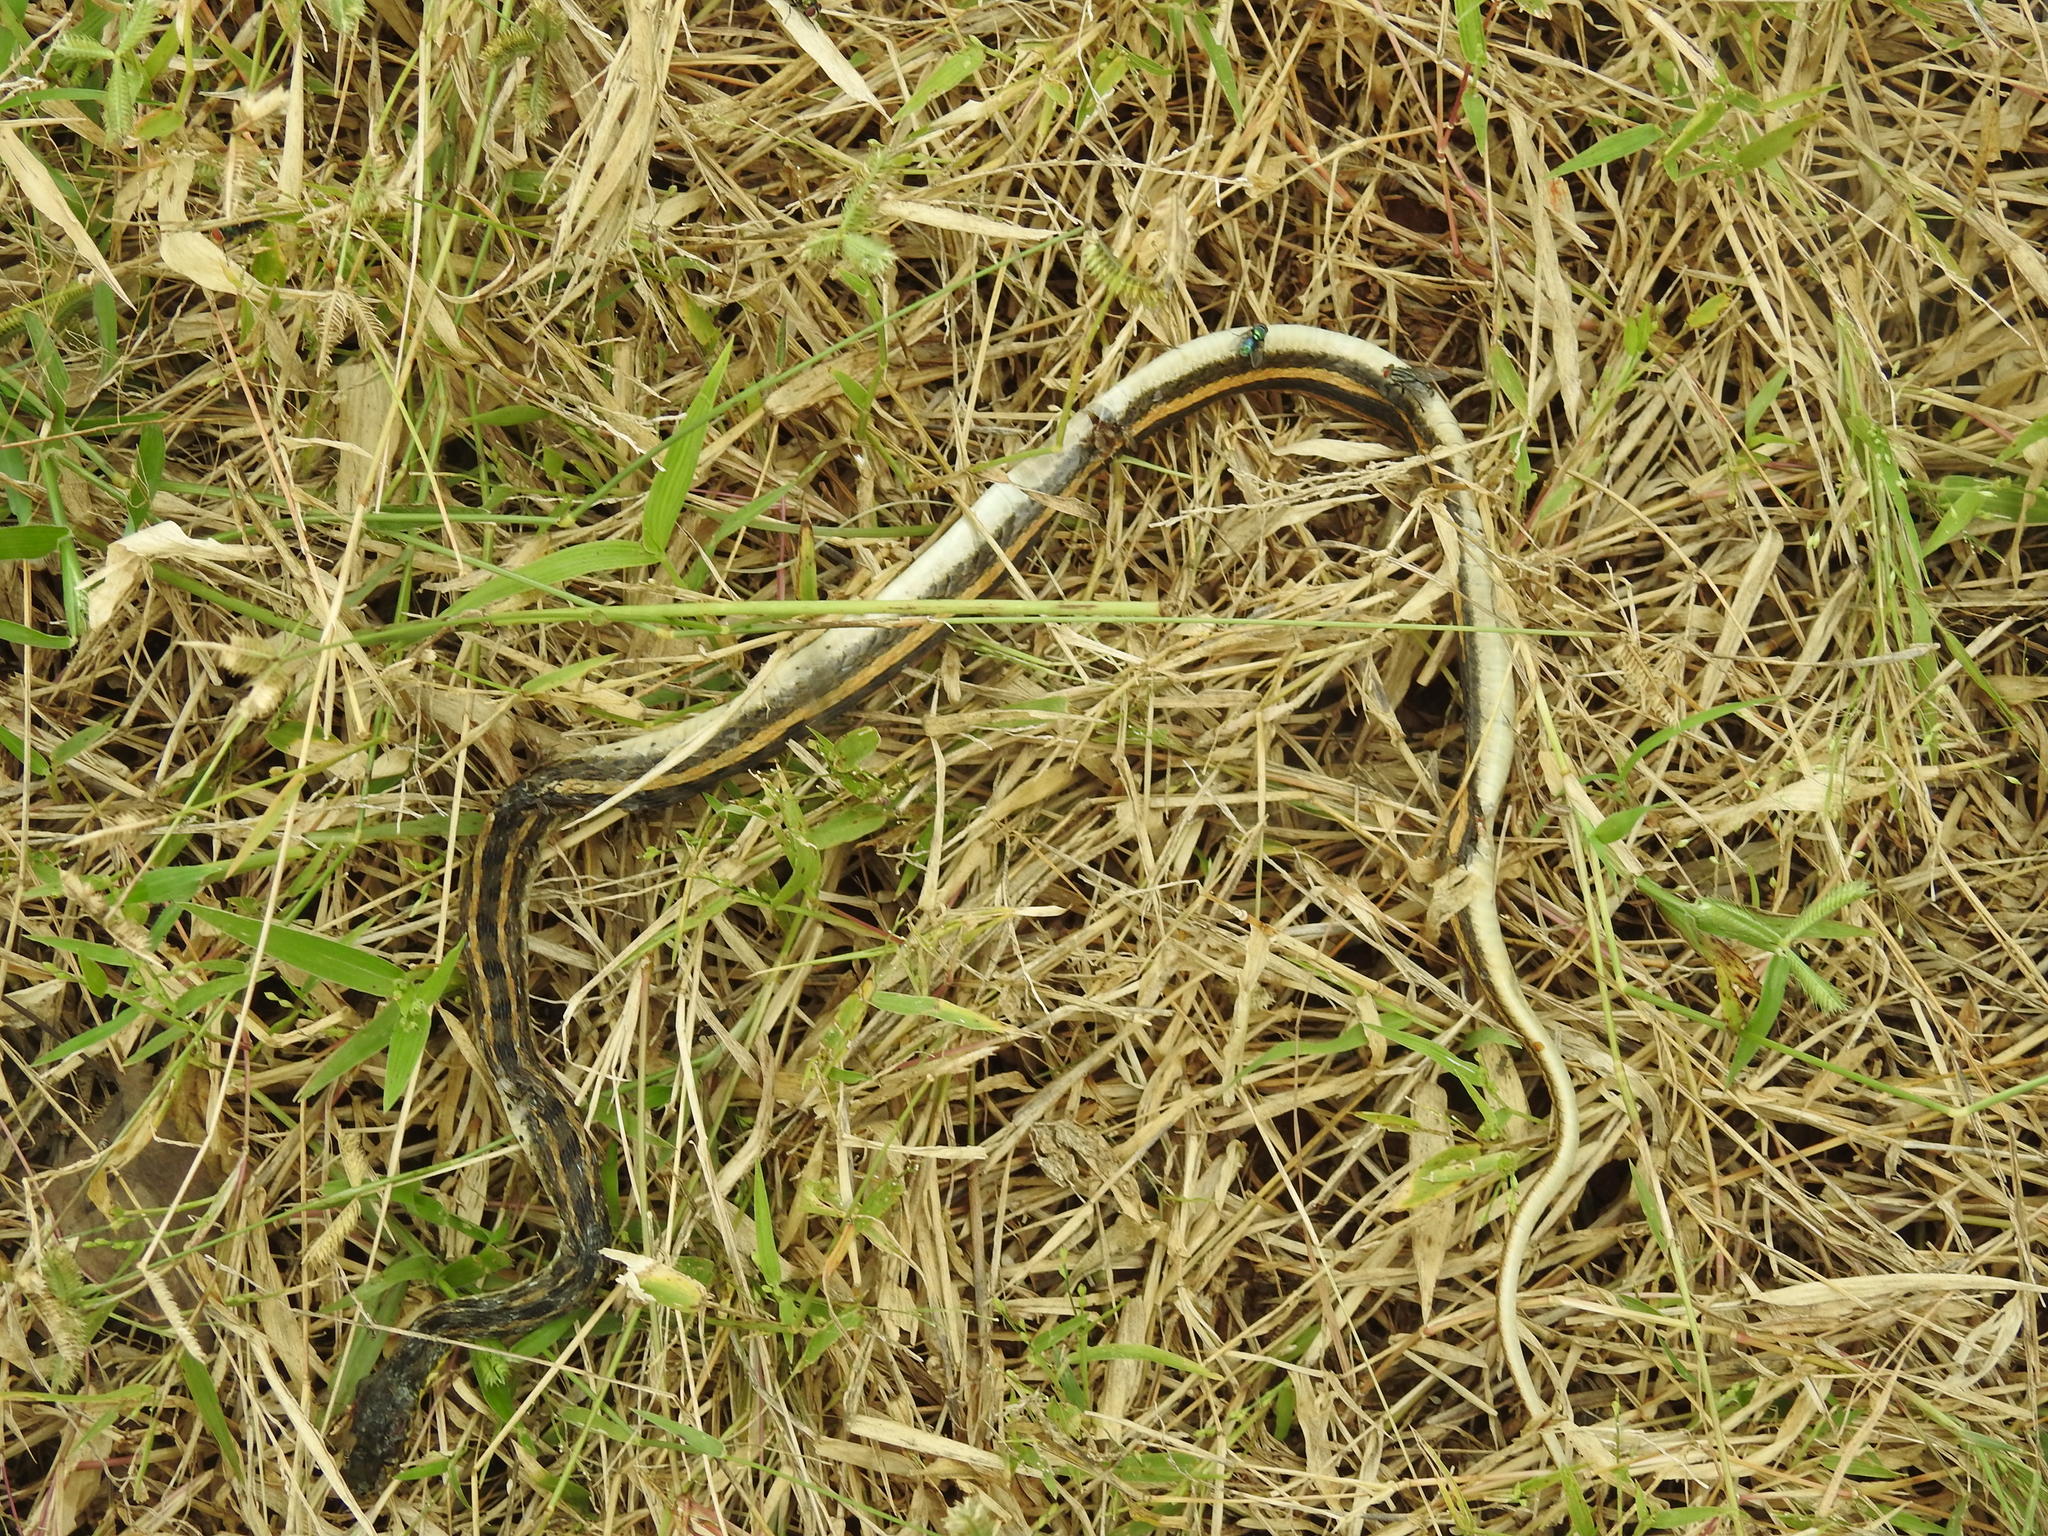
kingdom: Animalia
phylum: Chordata
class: Squamata
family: Colubridae
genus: Amphiesma
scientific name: Amphiesma stolatum
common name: Buff striped keelback
